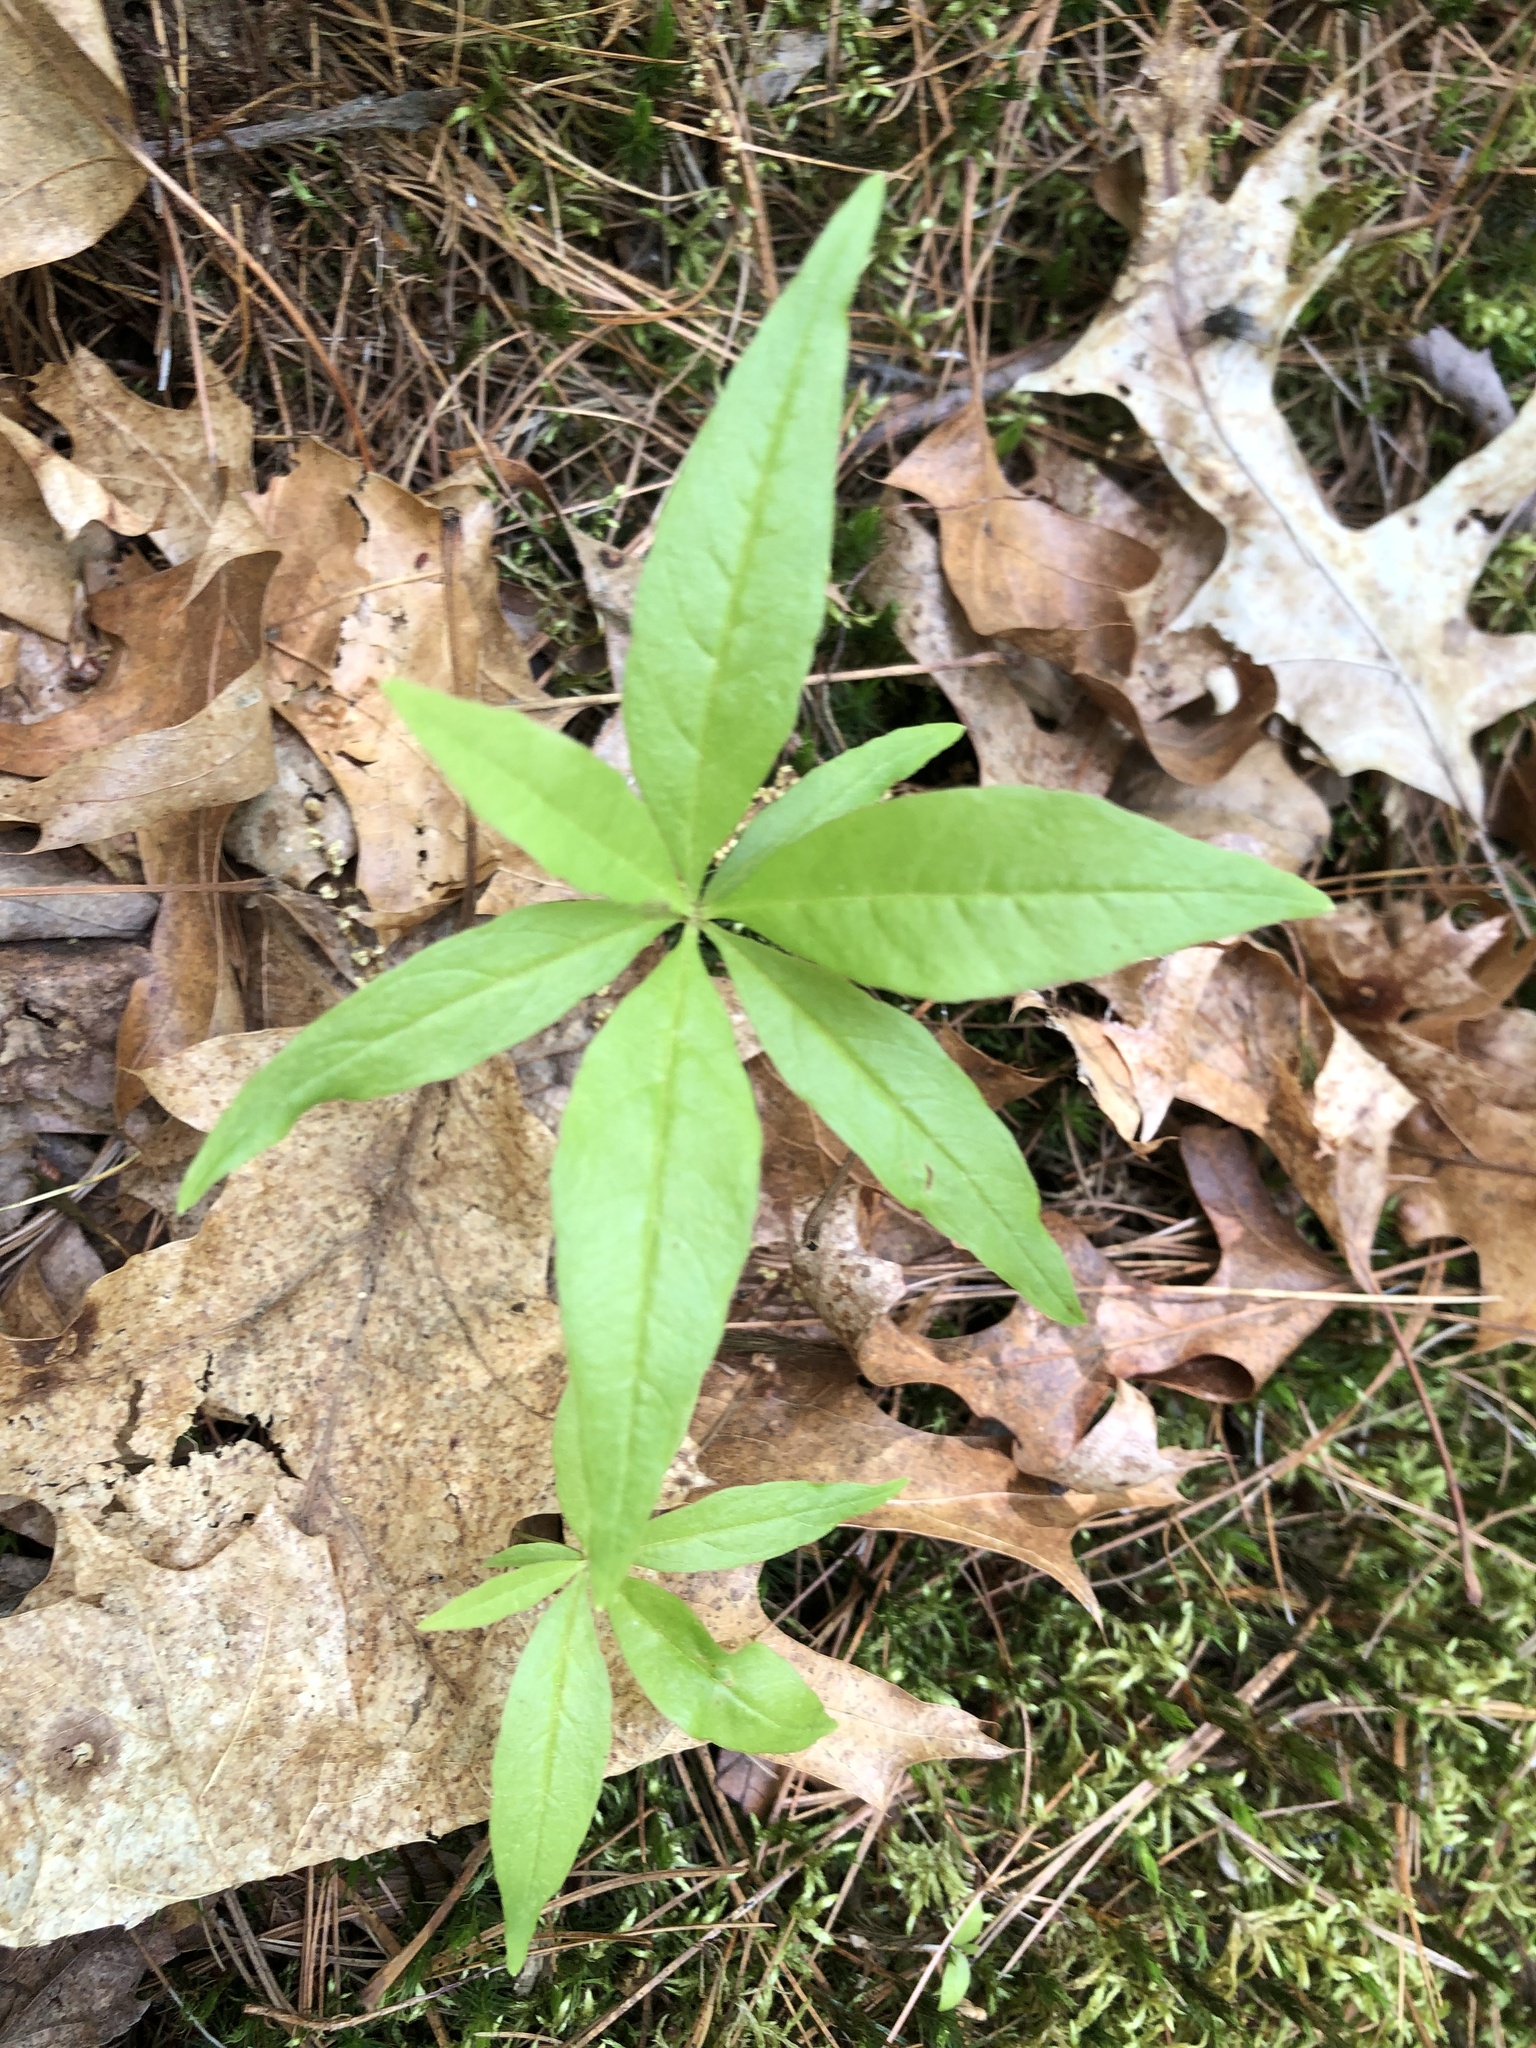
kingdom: Plantae
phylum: Tracheophyta
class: Magnoliopsida
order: Ericales
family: Primulaceae
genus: Lysimachia
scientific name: Lysimachia borealis
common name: American starflower
